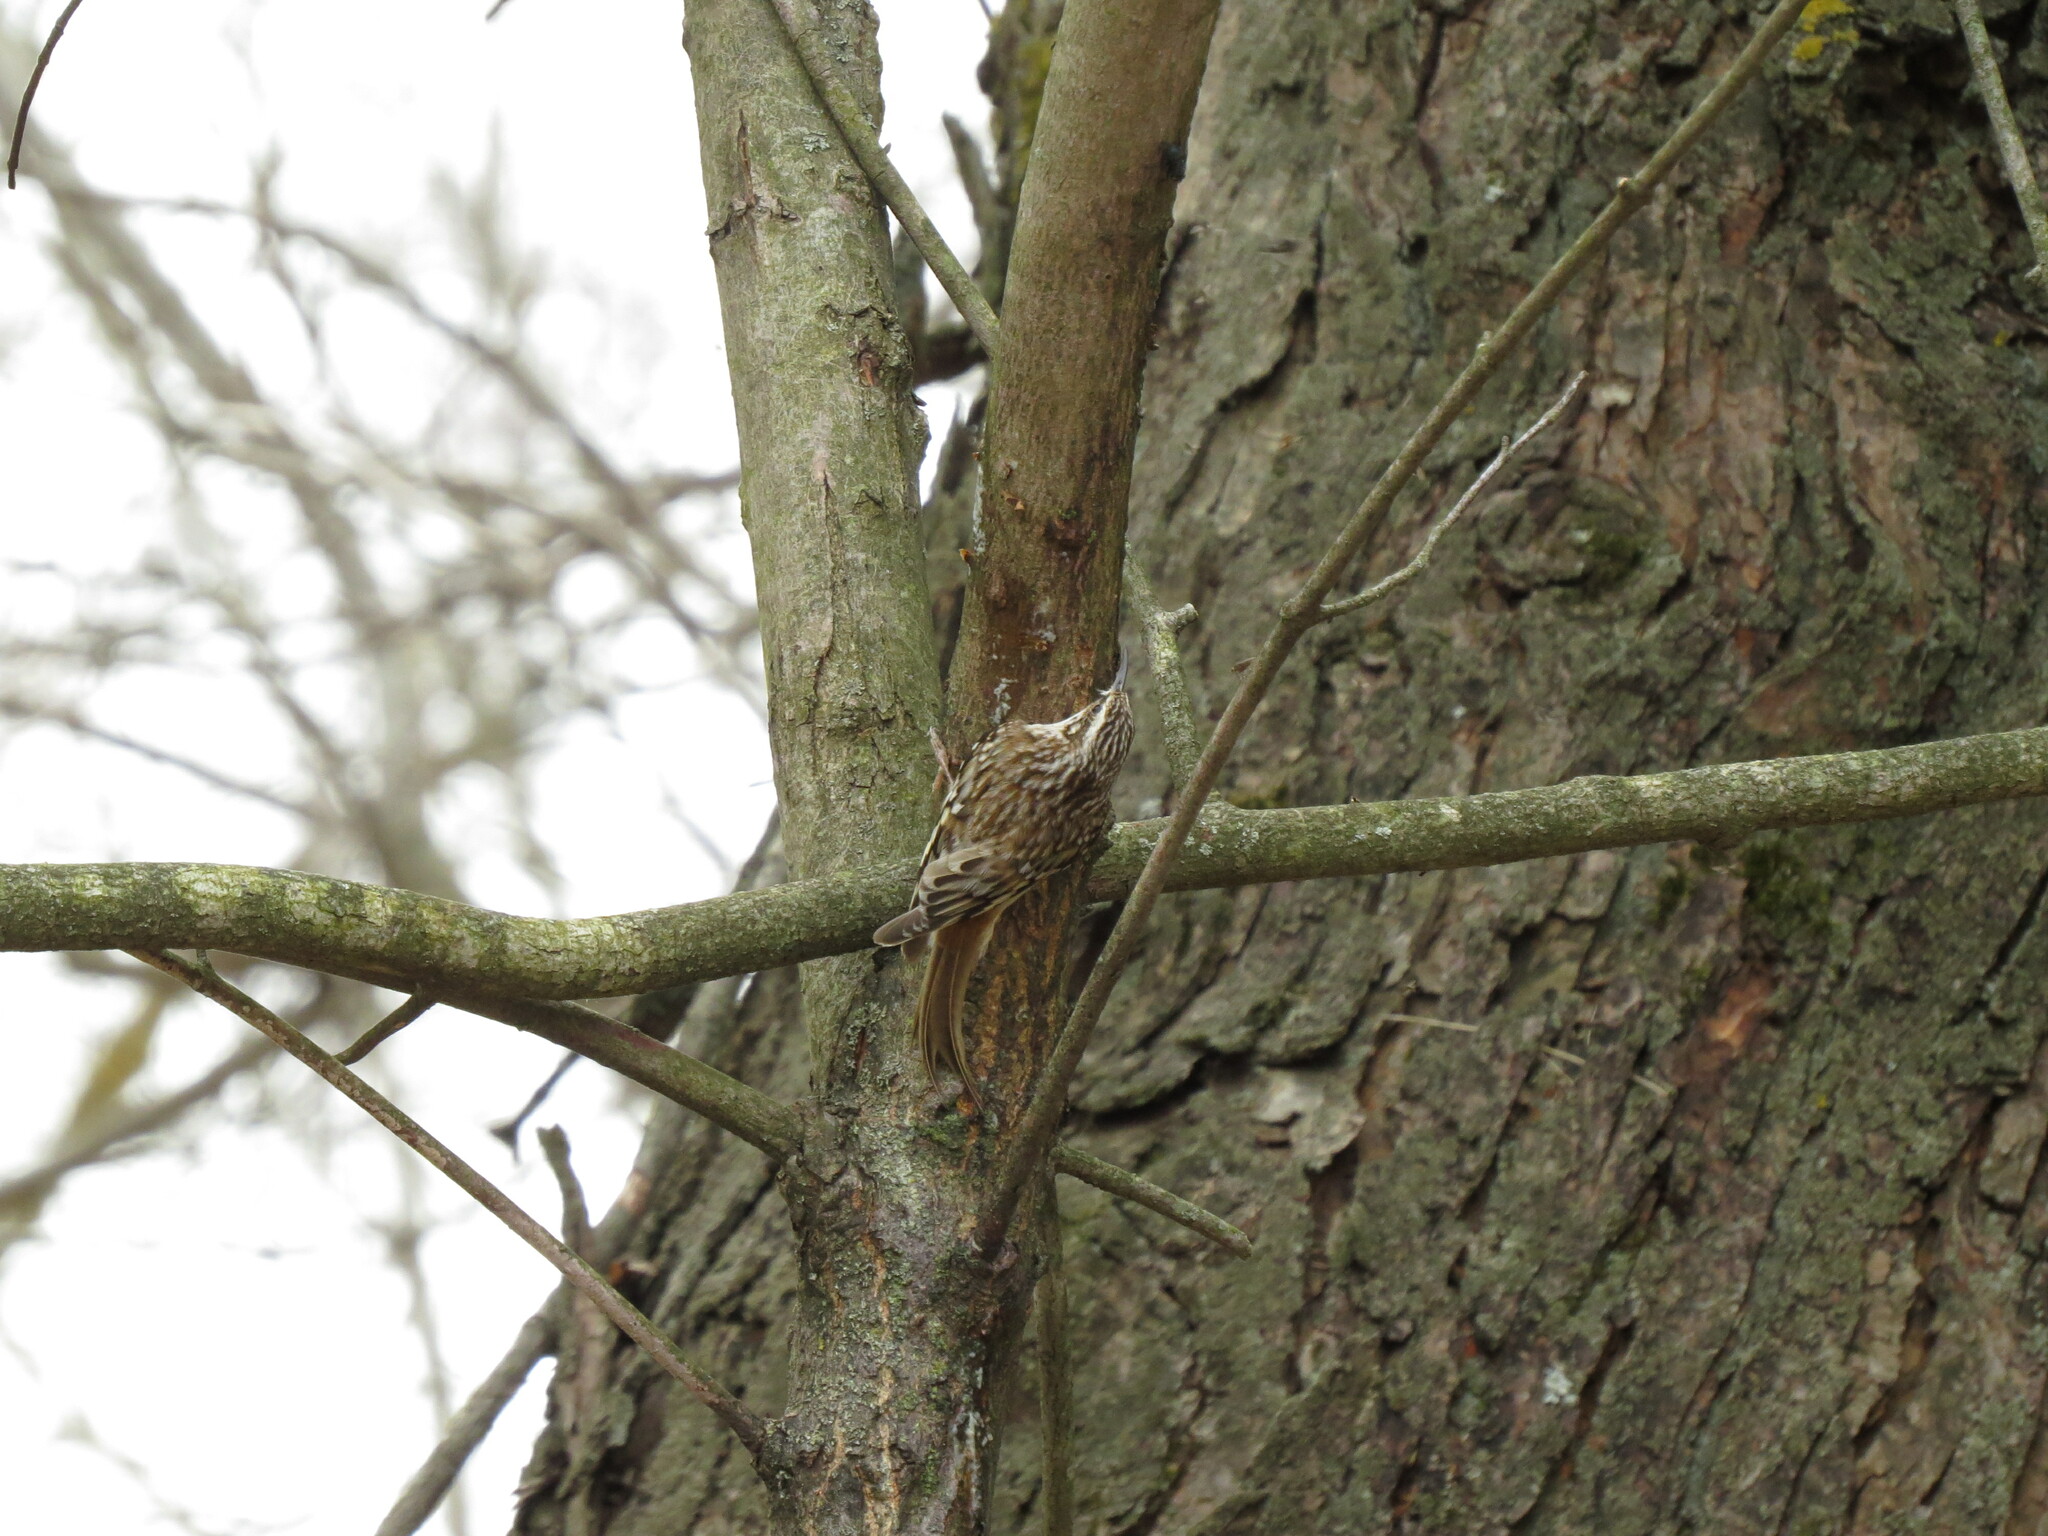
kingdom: Animalia
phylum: Chordata
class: Aves
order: Passeriformes
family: Certhiidae
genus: Certhia
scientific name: Certhia americana
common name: Brown creeper
